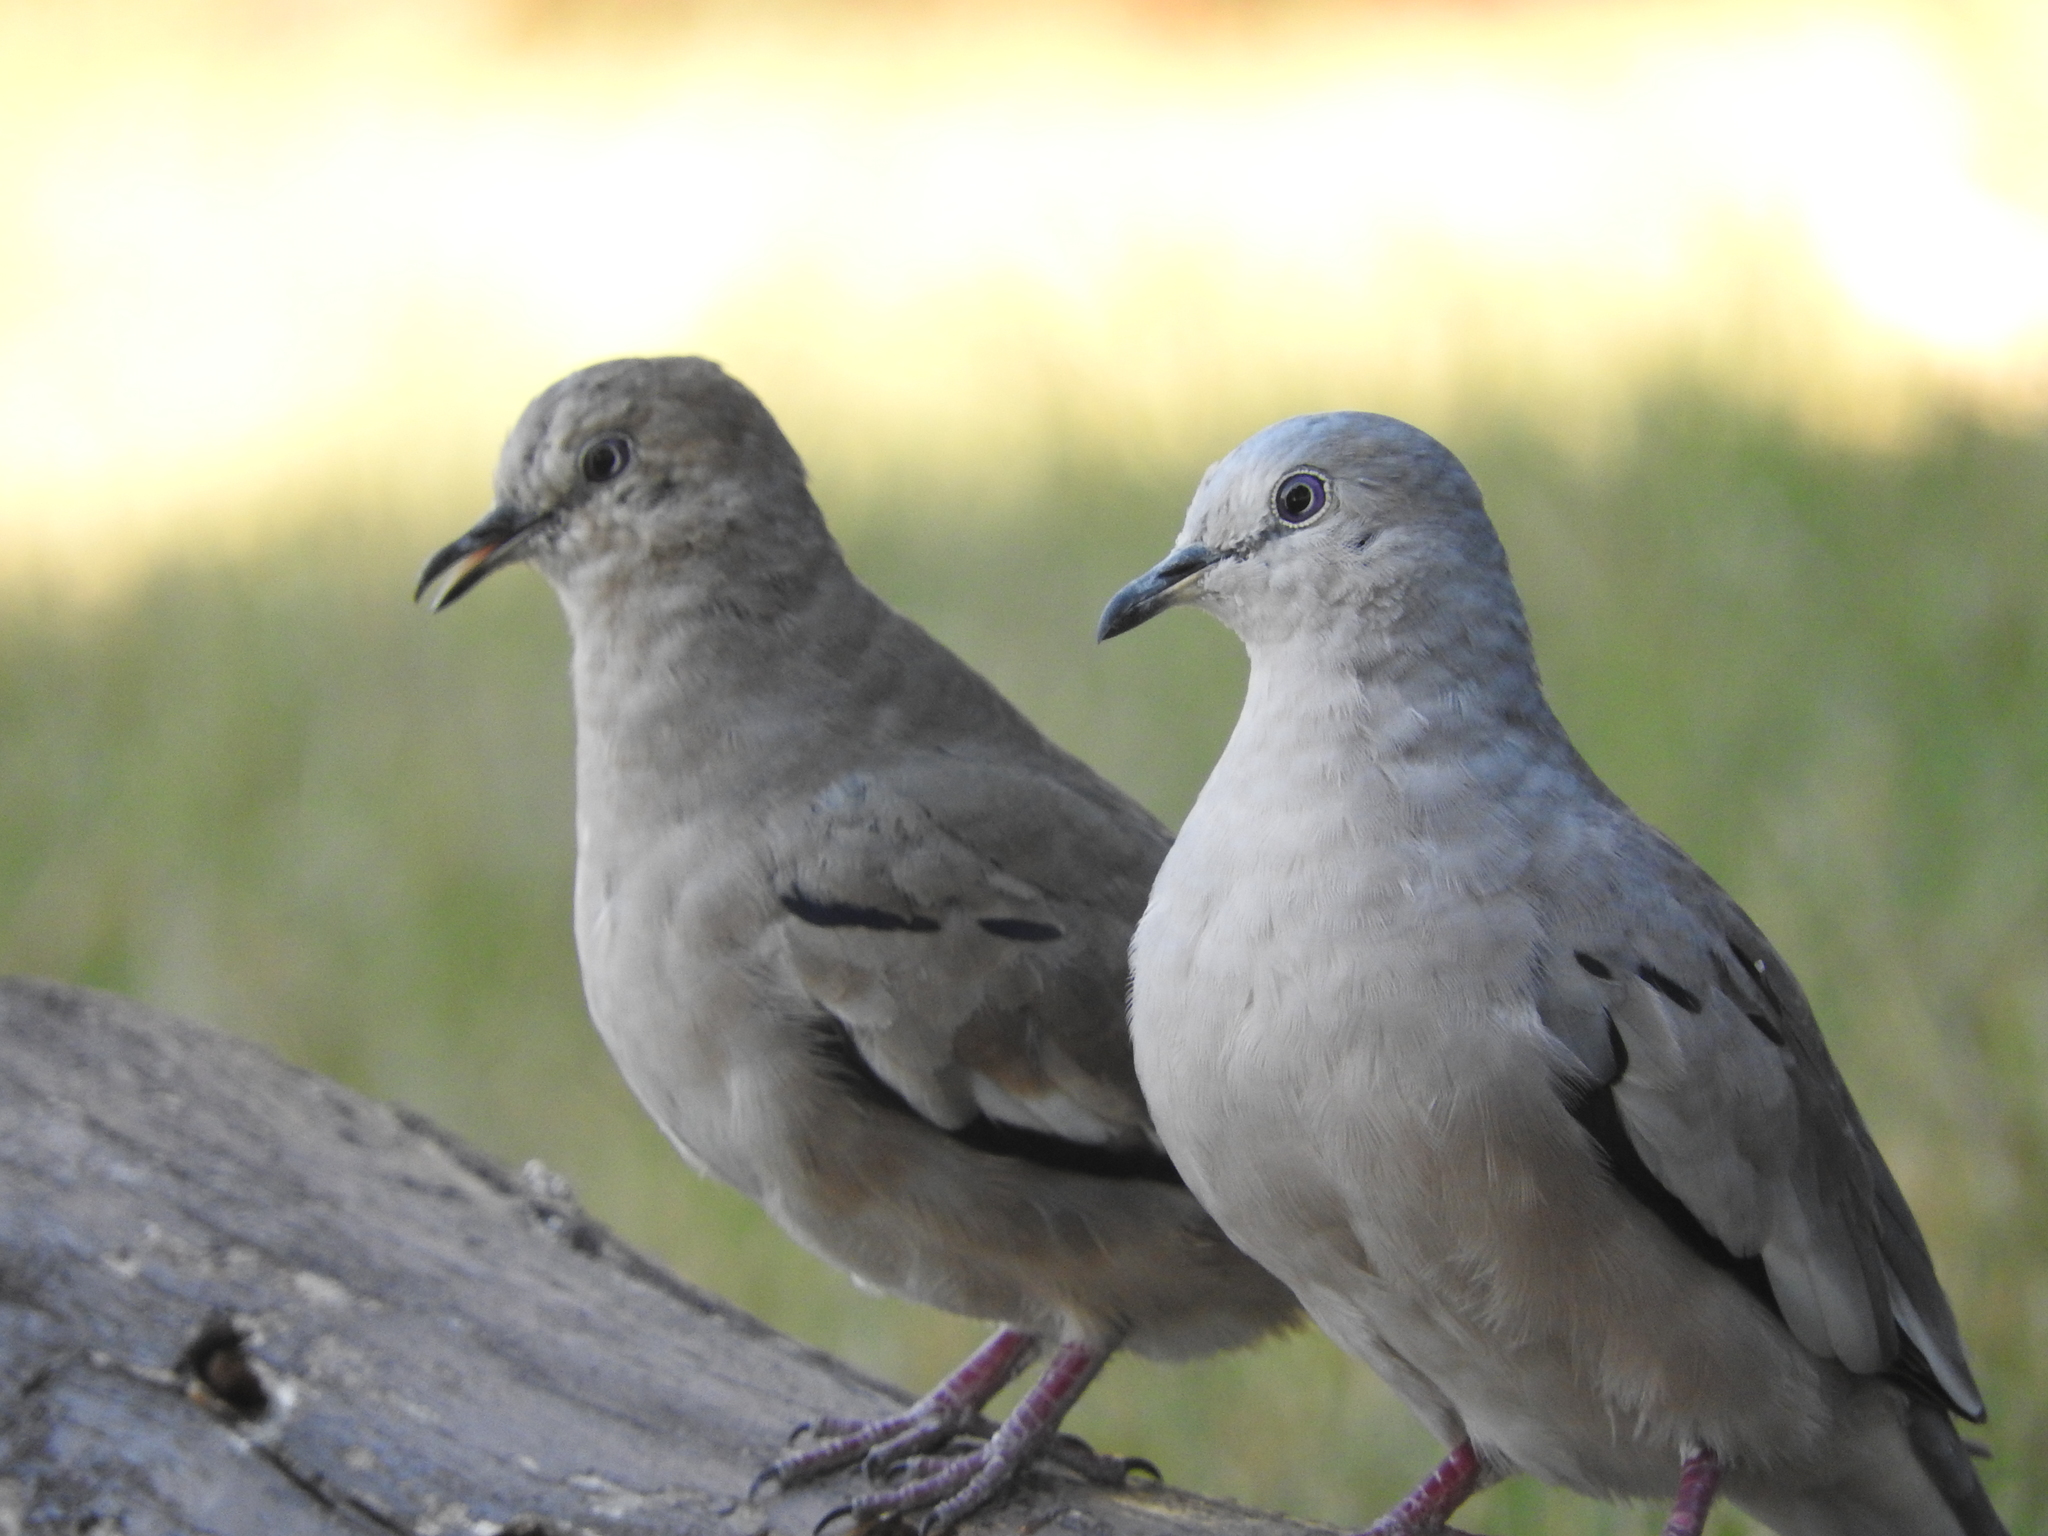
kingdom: Animalia
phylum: Chordata
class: Aves
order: Columbiformes
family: Columbidae
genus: Columbina
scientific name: Columbina picui
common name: Picui ground dove
